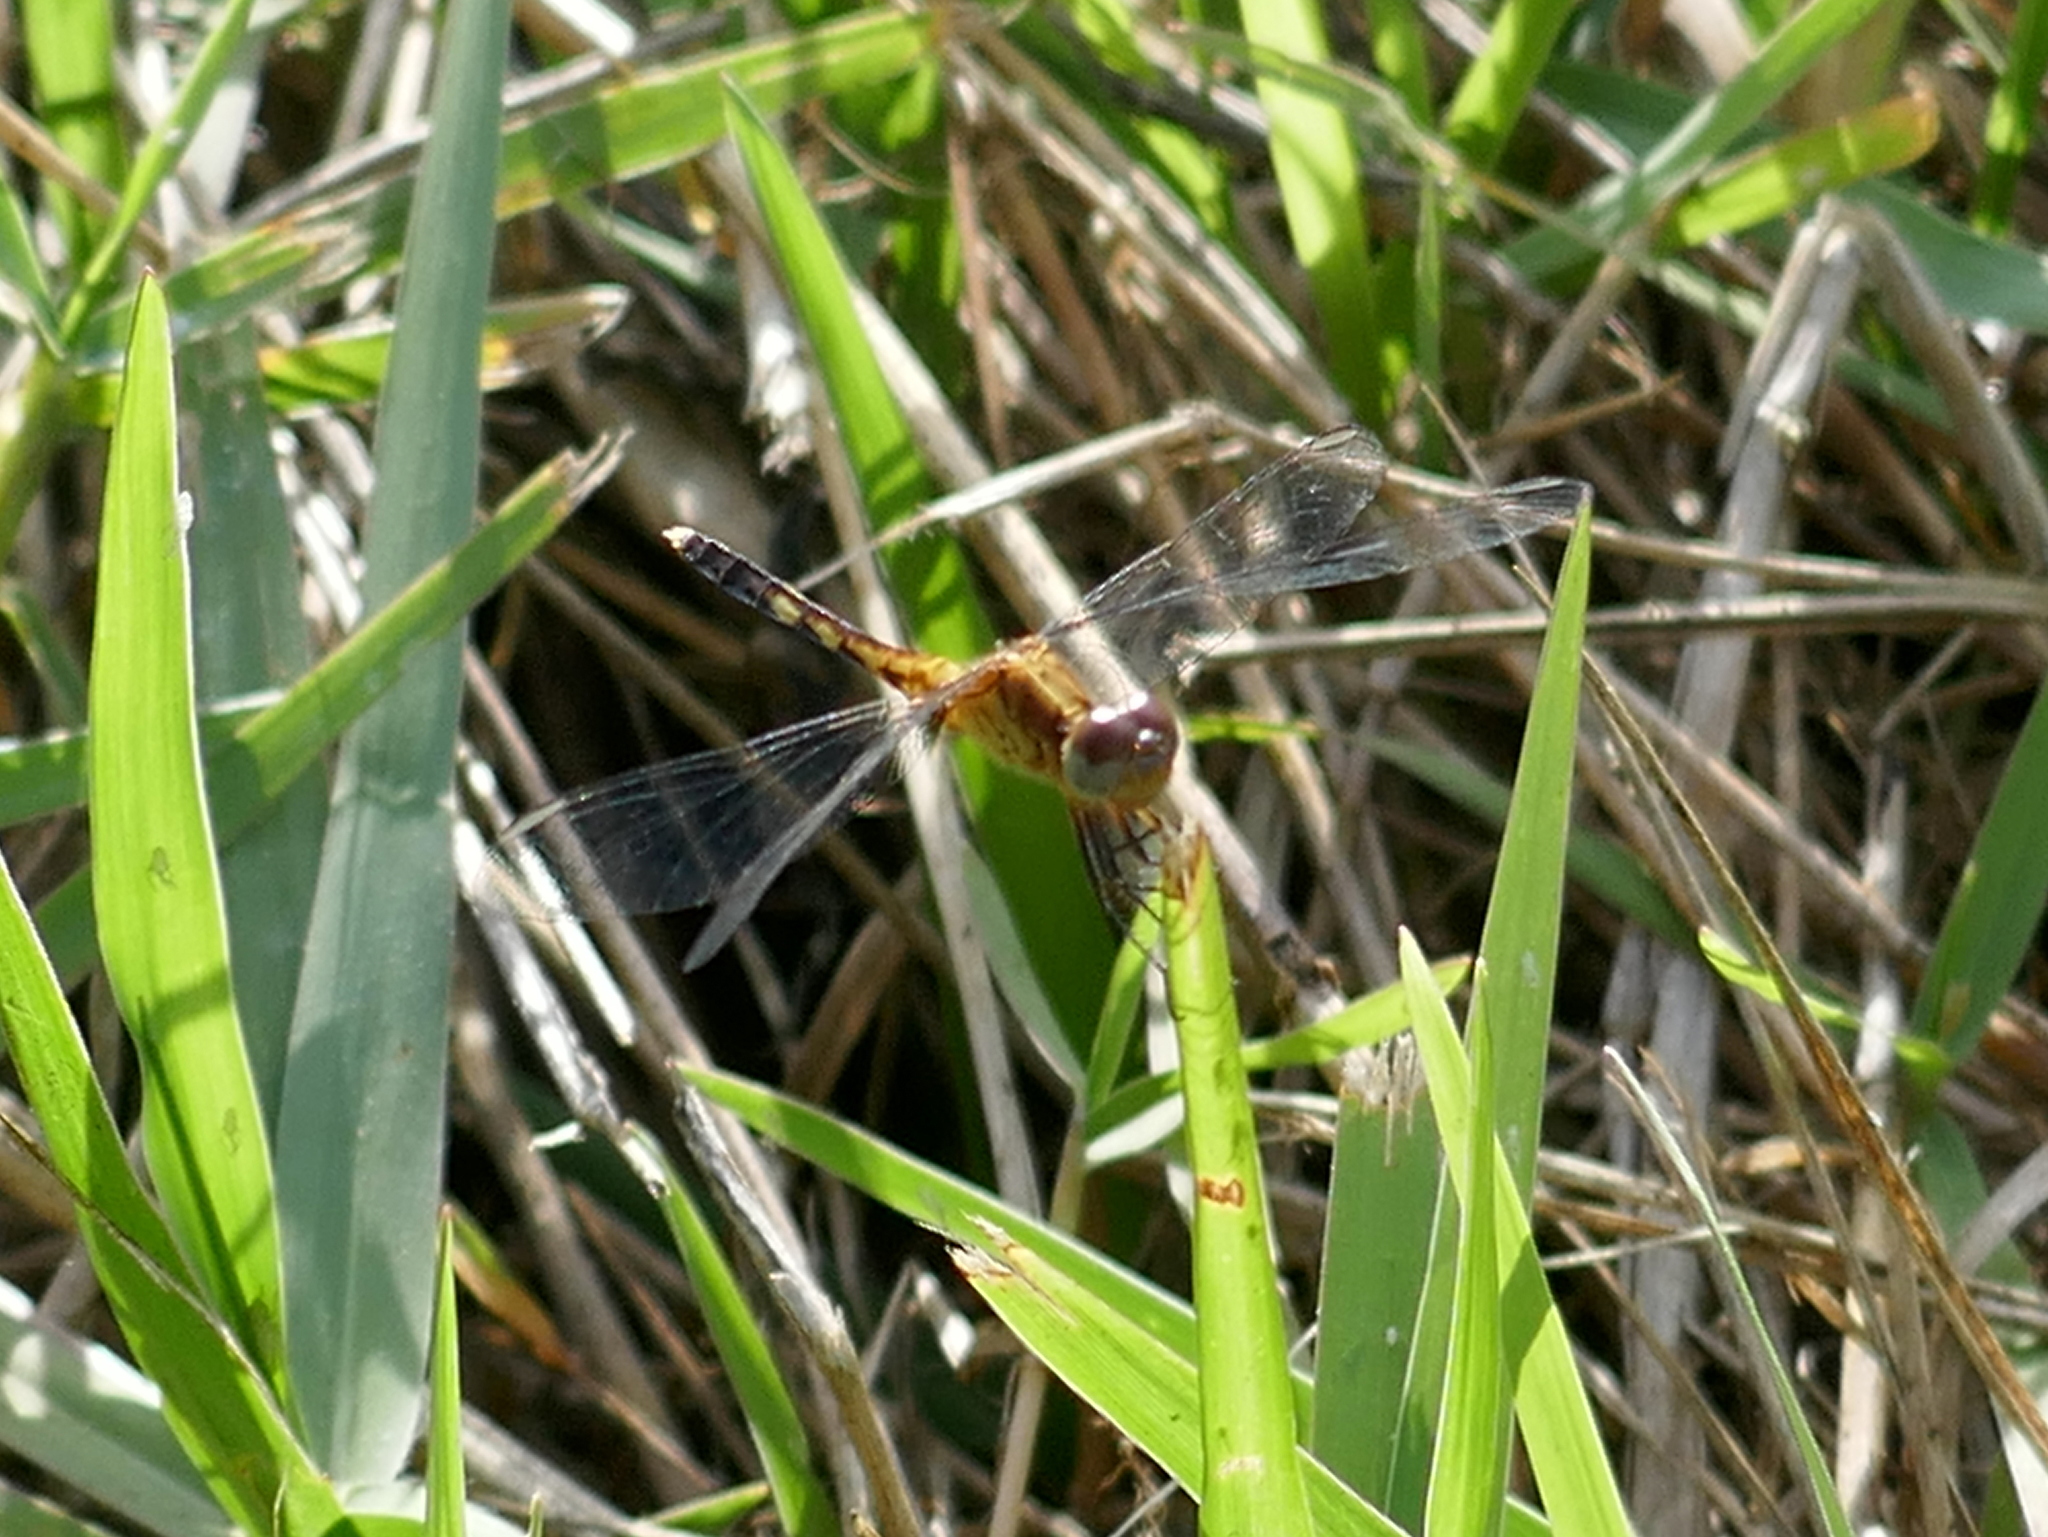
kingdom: Animalia
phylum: Arthropoda
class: Insecta
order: Odonata
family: Libellulidae
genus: Erythrodiplax
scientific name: Erythrodiplax minuscula
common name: Little blue dragonlet
